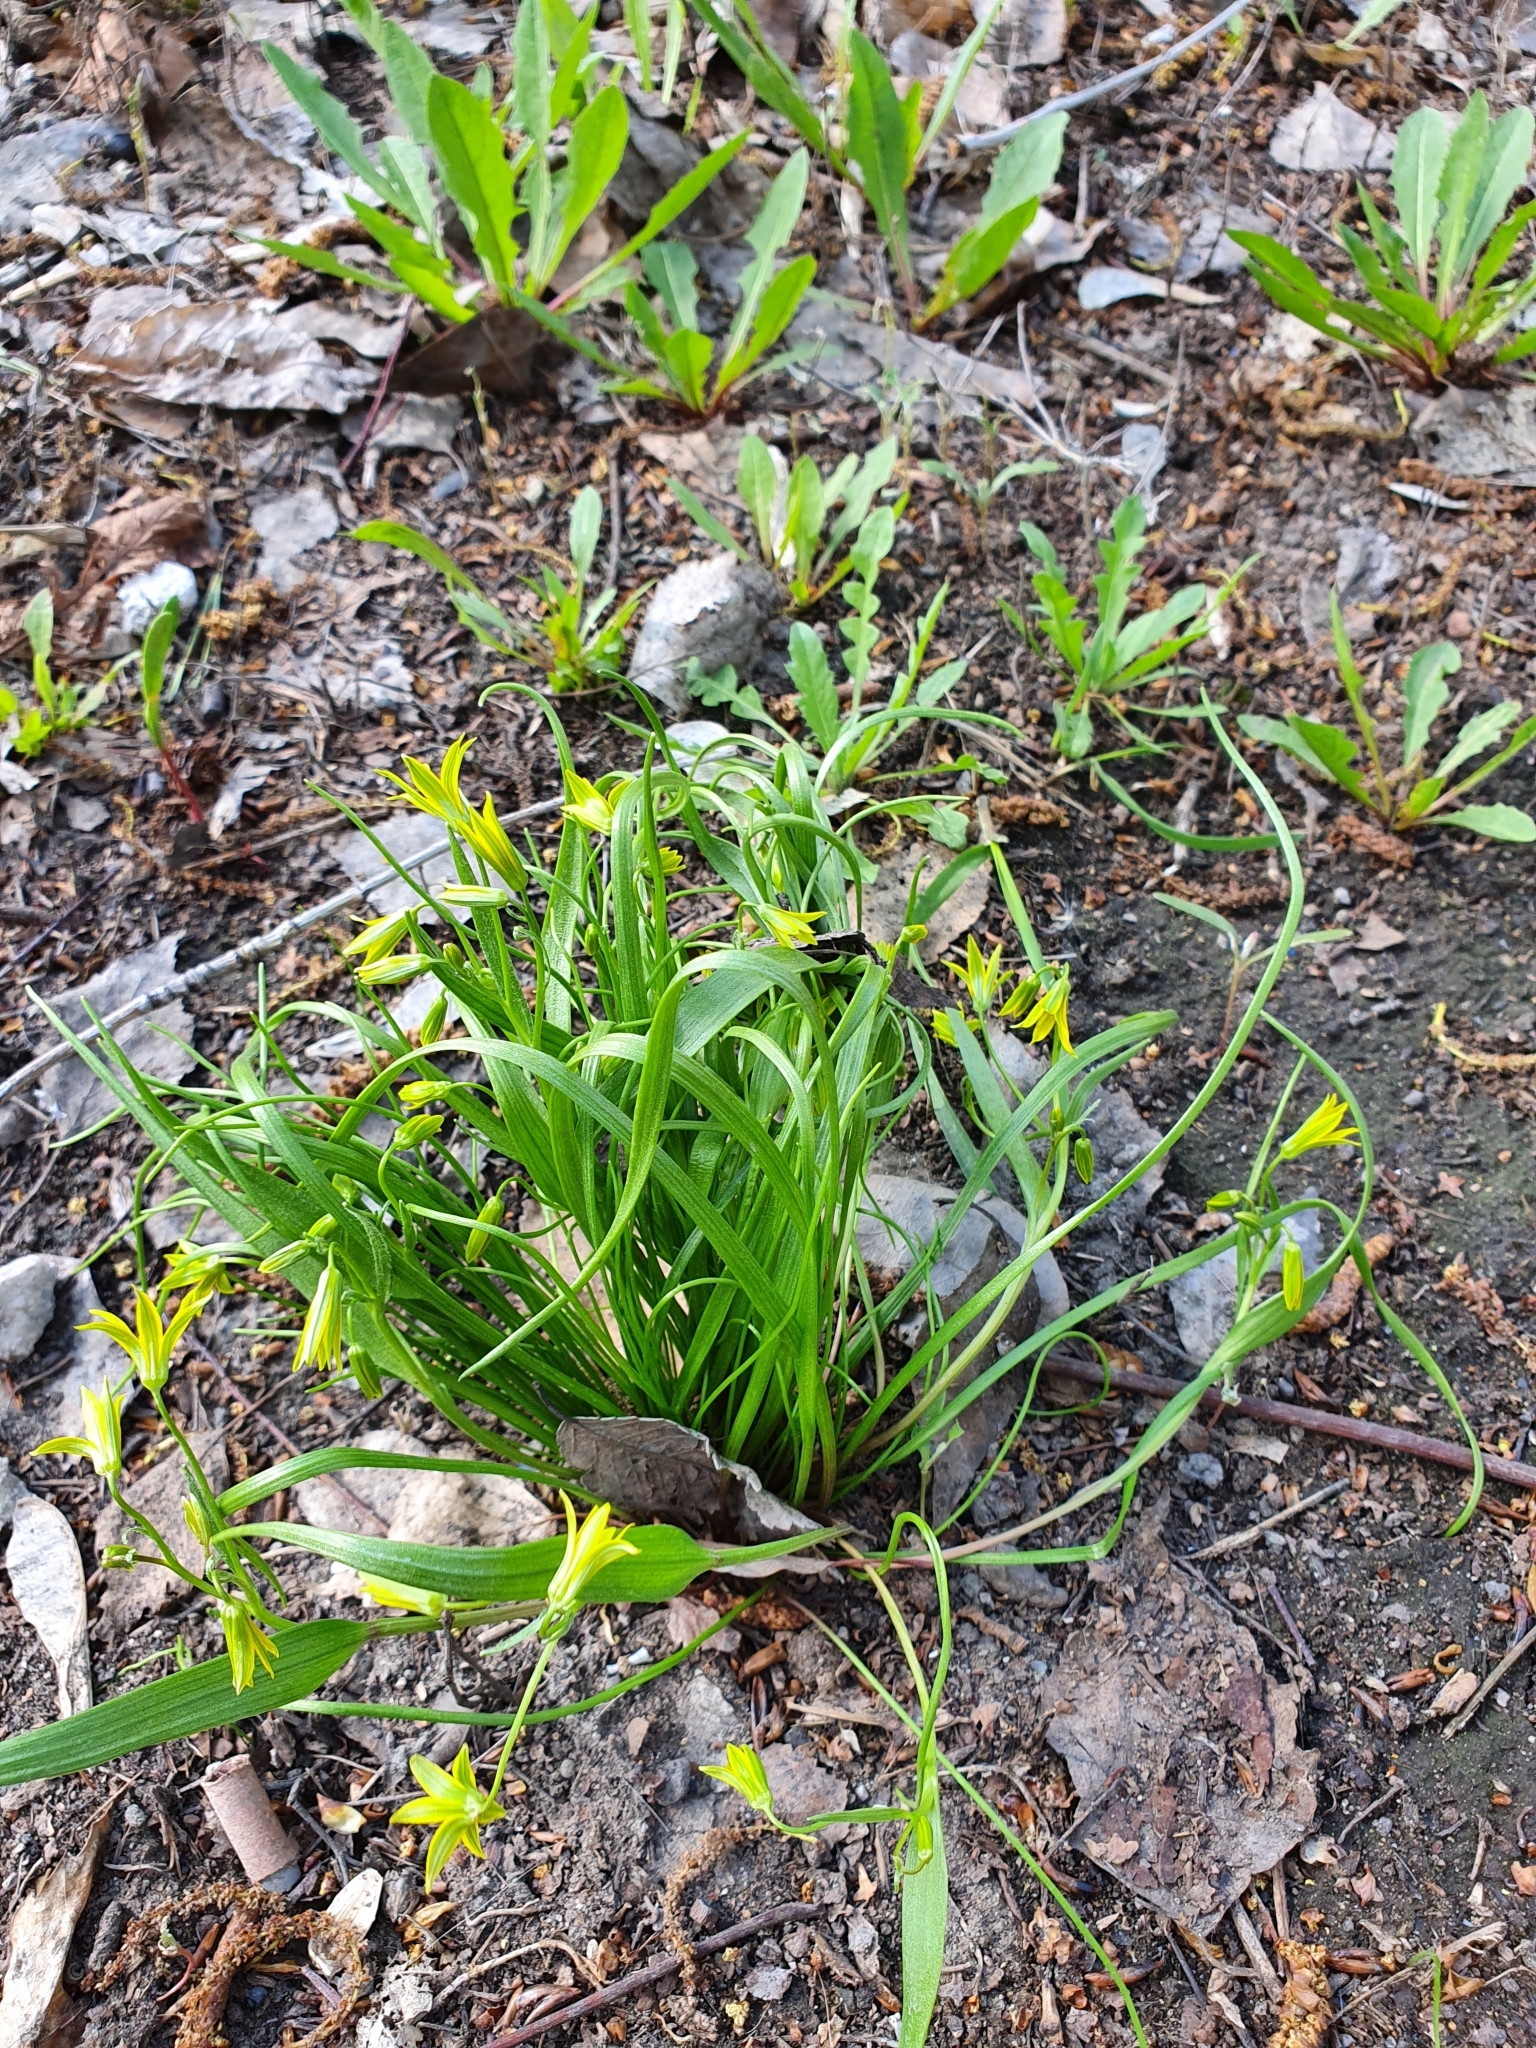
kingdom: Plantae
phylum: Tracheophyta
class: Liliopsida
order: Liliales
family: Liliaceae
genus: Gagea
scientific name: Gagea minima
